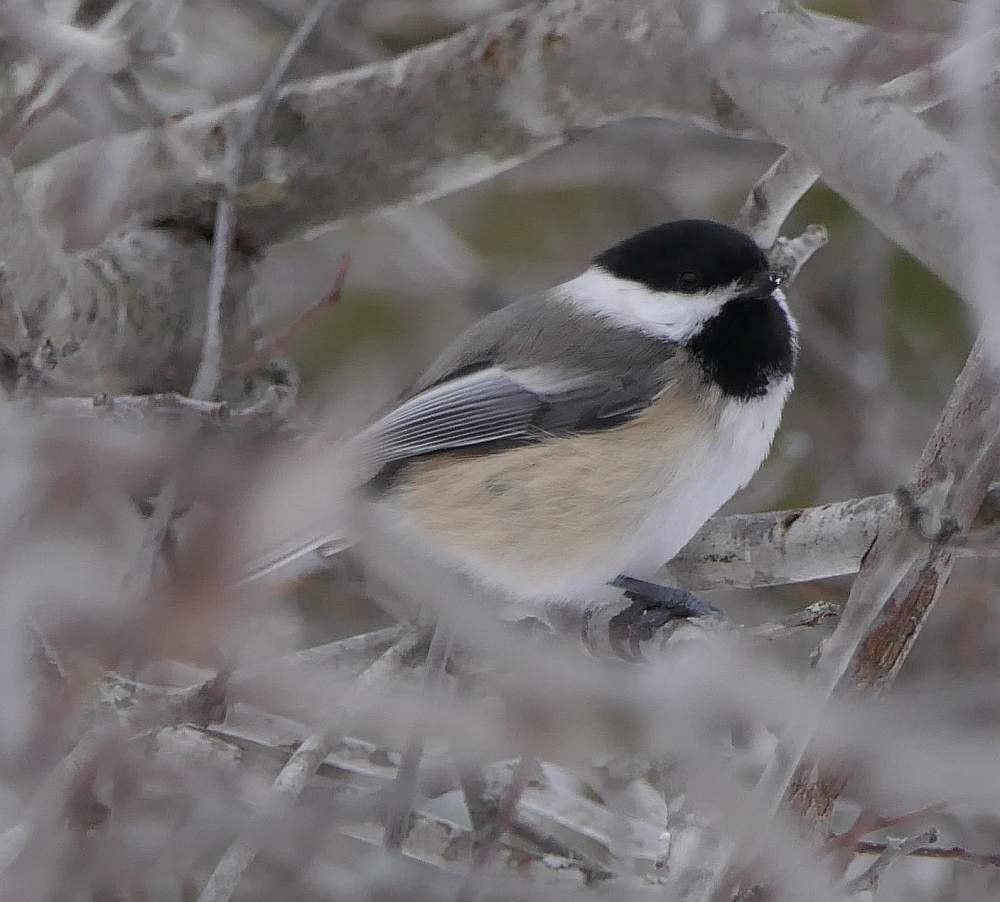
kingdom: Animalia
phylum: Chordata
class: Aves
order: Passeriformes
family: Paridae
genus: Poecile
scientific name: Poecile atricapillus
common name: Black-capped chickadee
